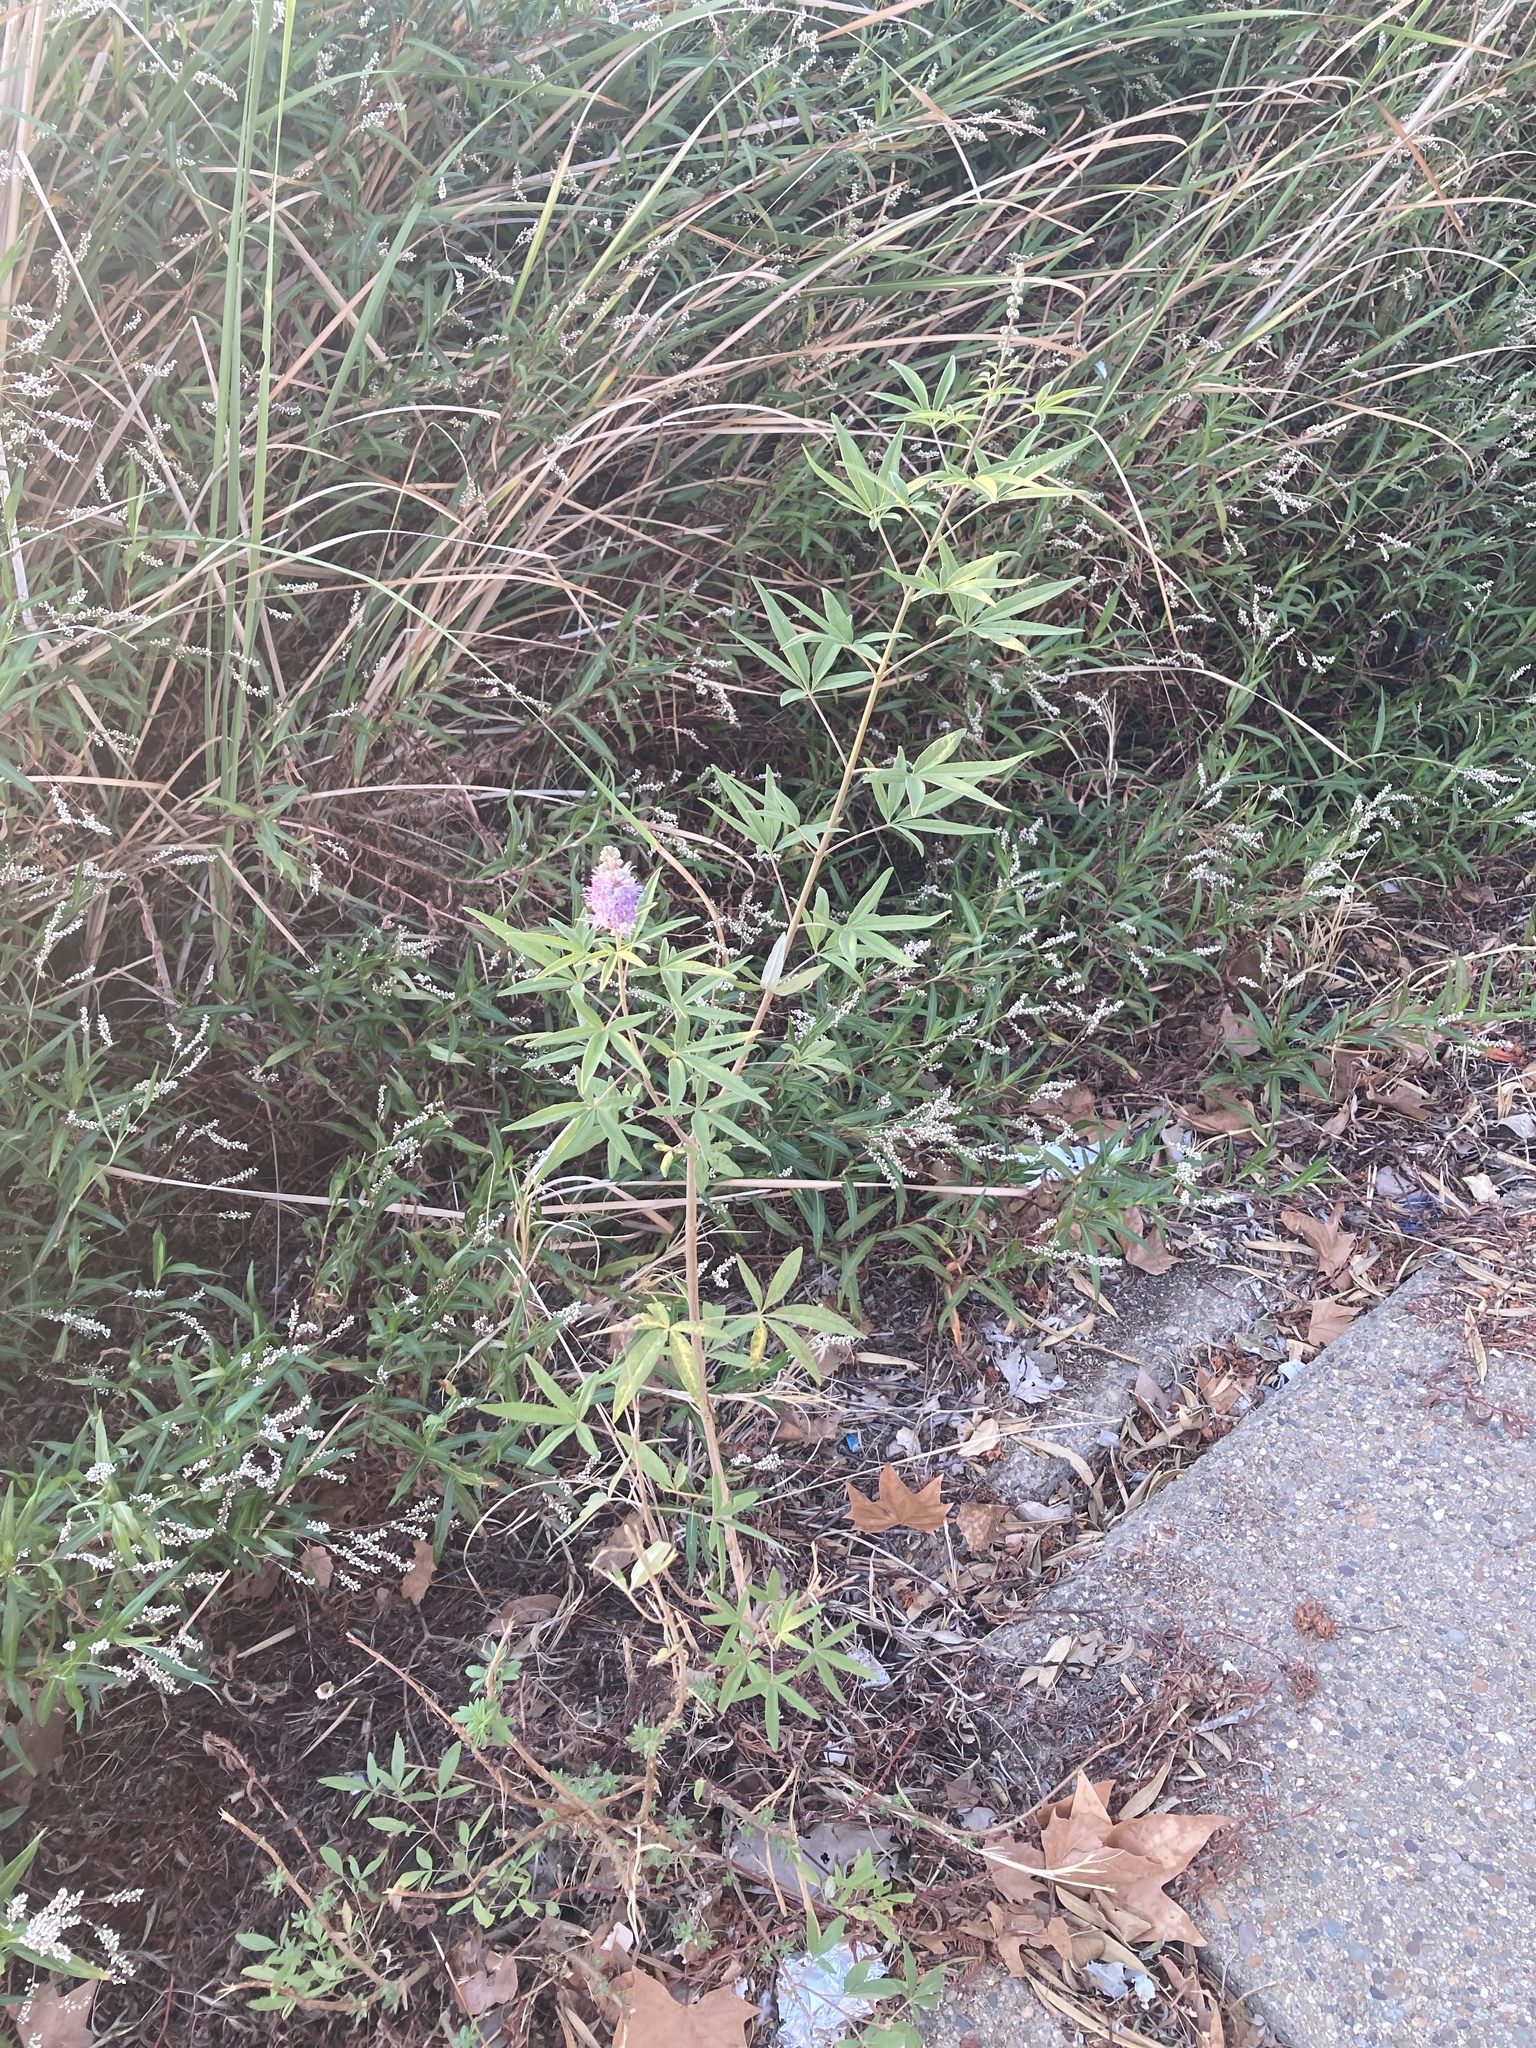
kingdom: Plantae
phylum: Tracheophyta
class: Magnoliopsida
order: Lamiales
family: Lamiaceae
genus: Vitex
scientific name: Vitex agnus-castus
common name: Chasteberry
